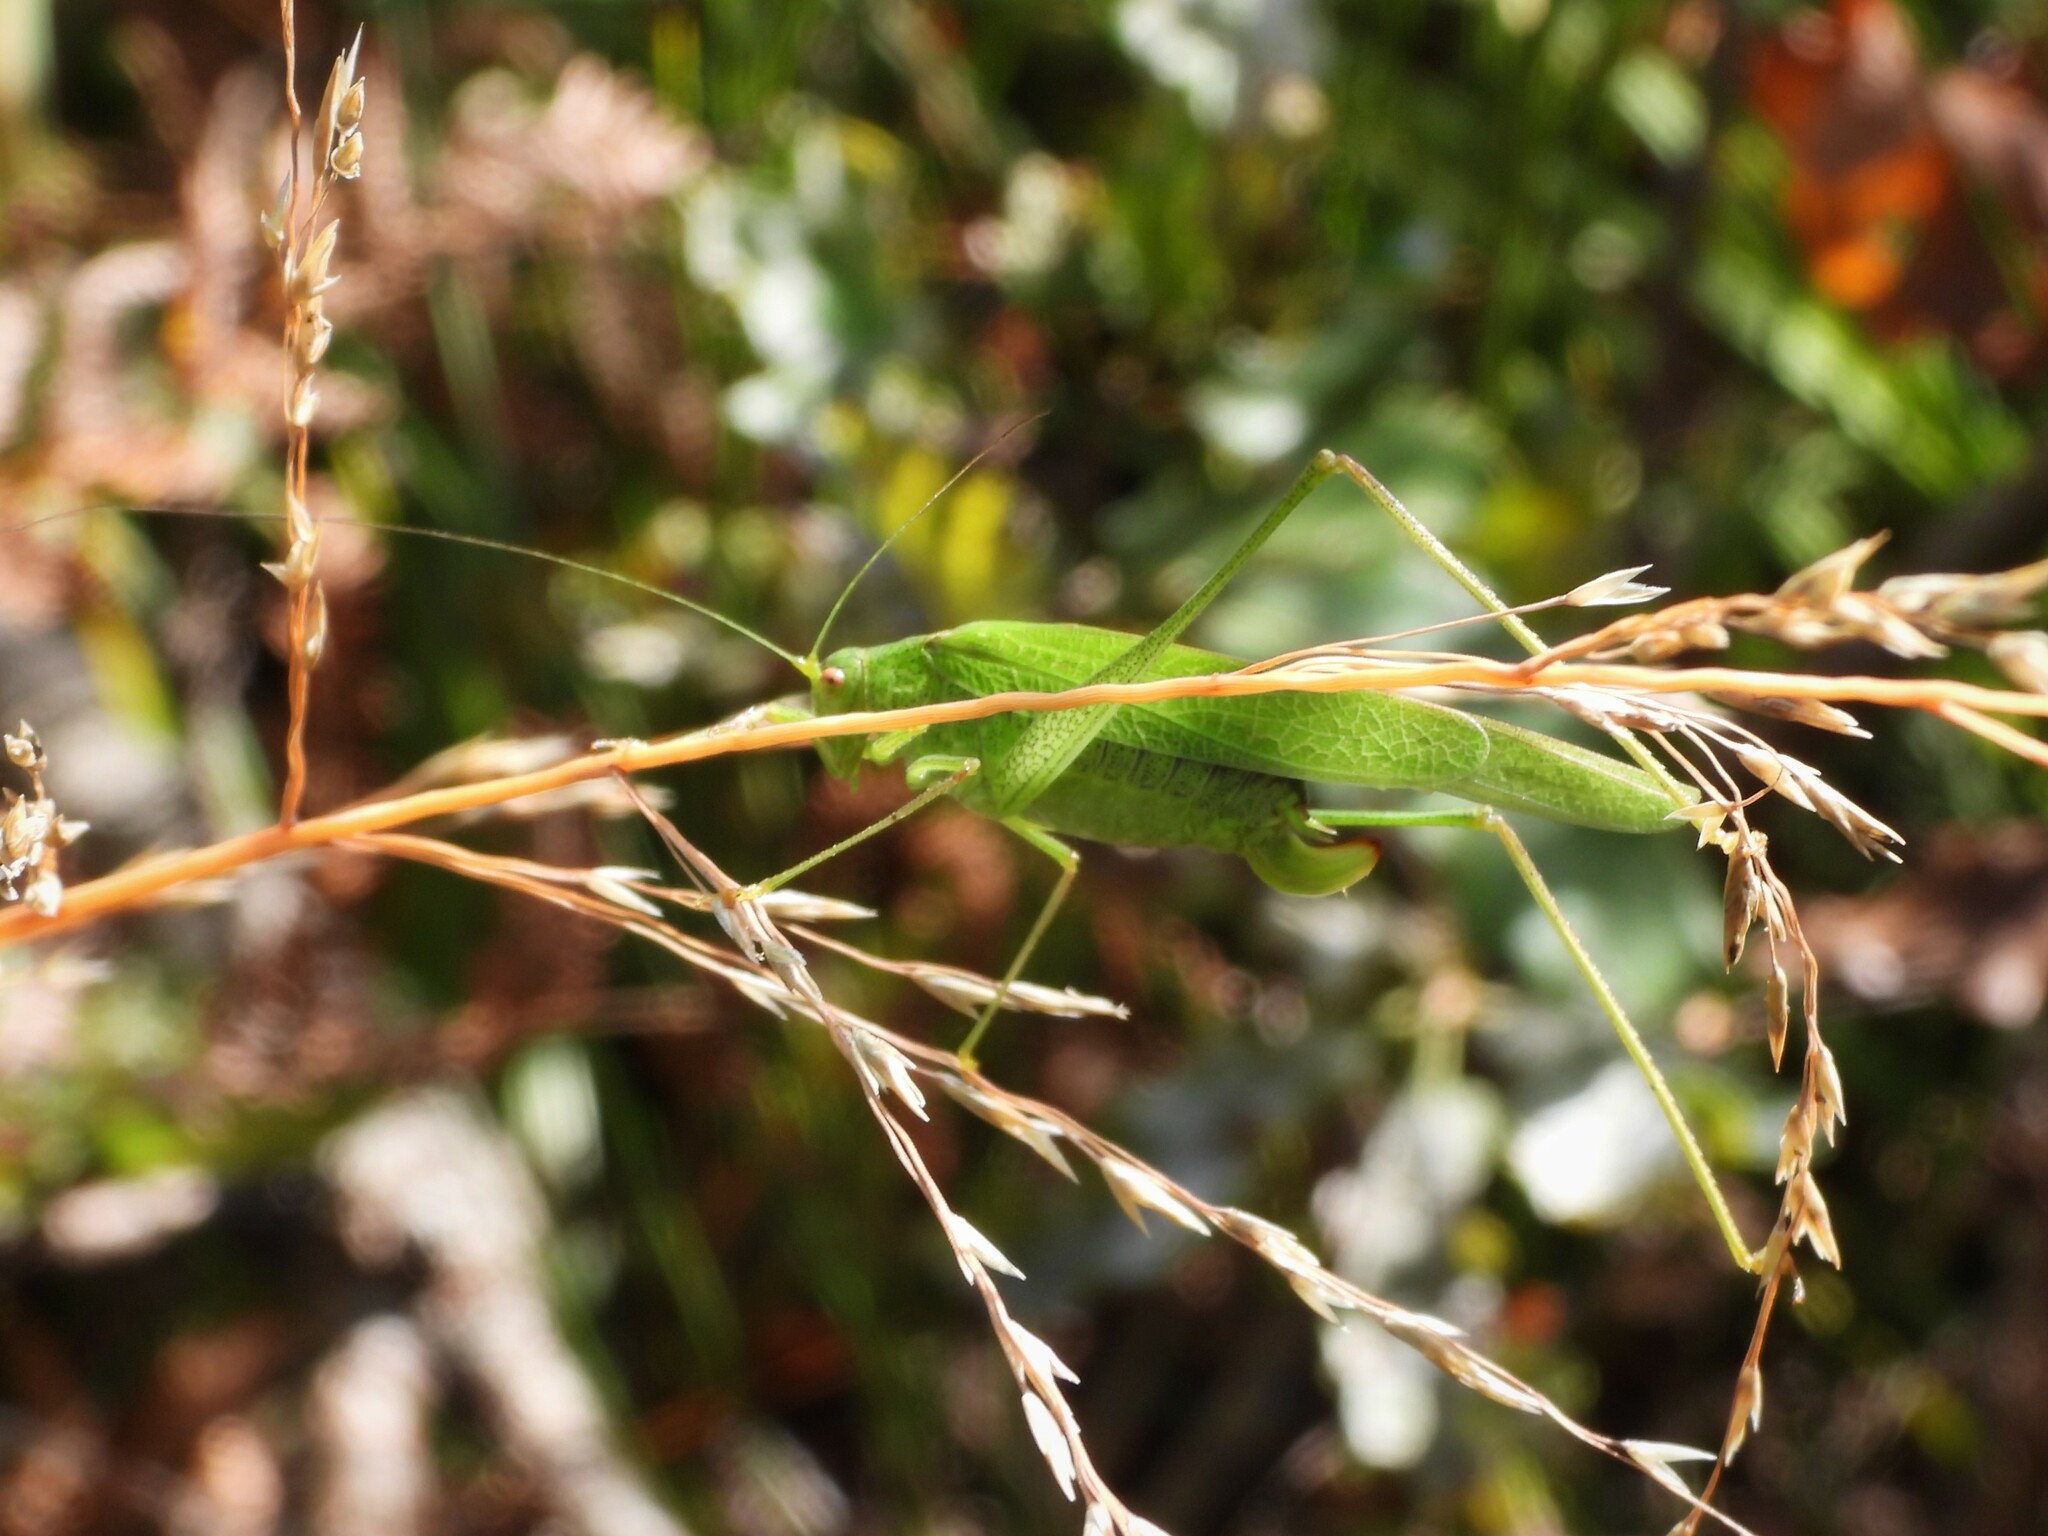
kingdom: Animalia
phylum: Arthropoda
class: Insecta
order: Orthoptera
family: Tettigoniidae
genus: Phaneroptera
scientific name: Phaneroptera nana
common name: Southern sickle bush-cricket
